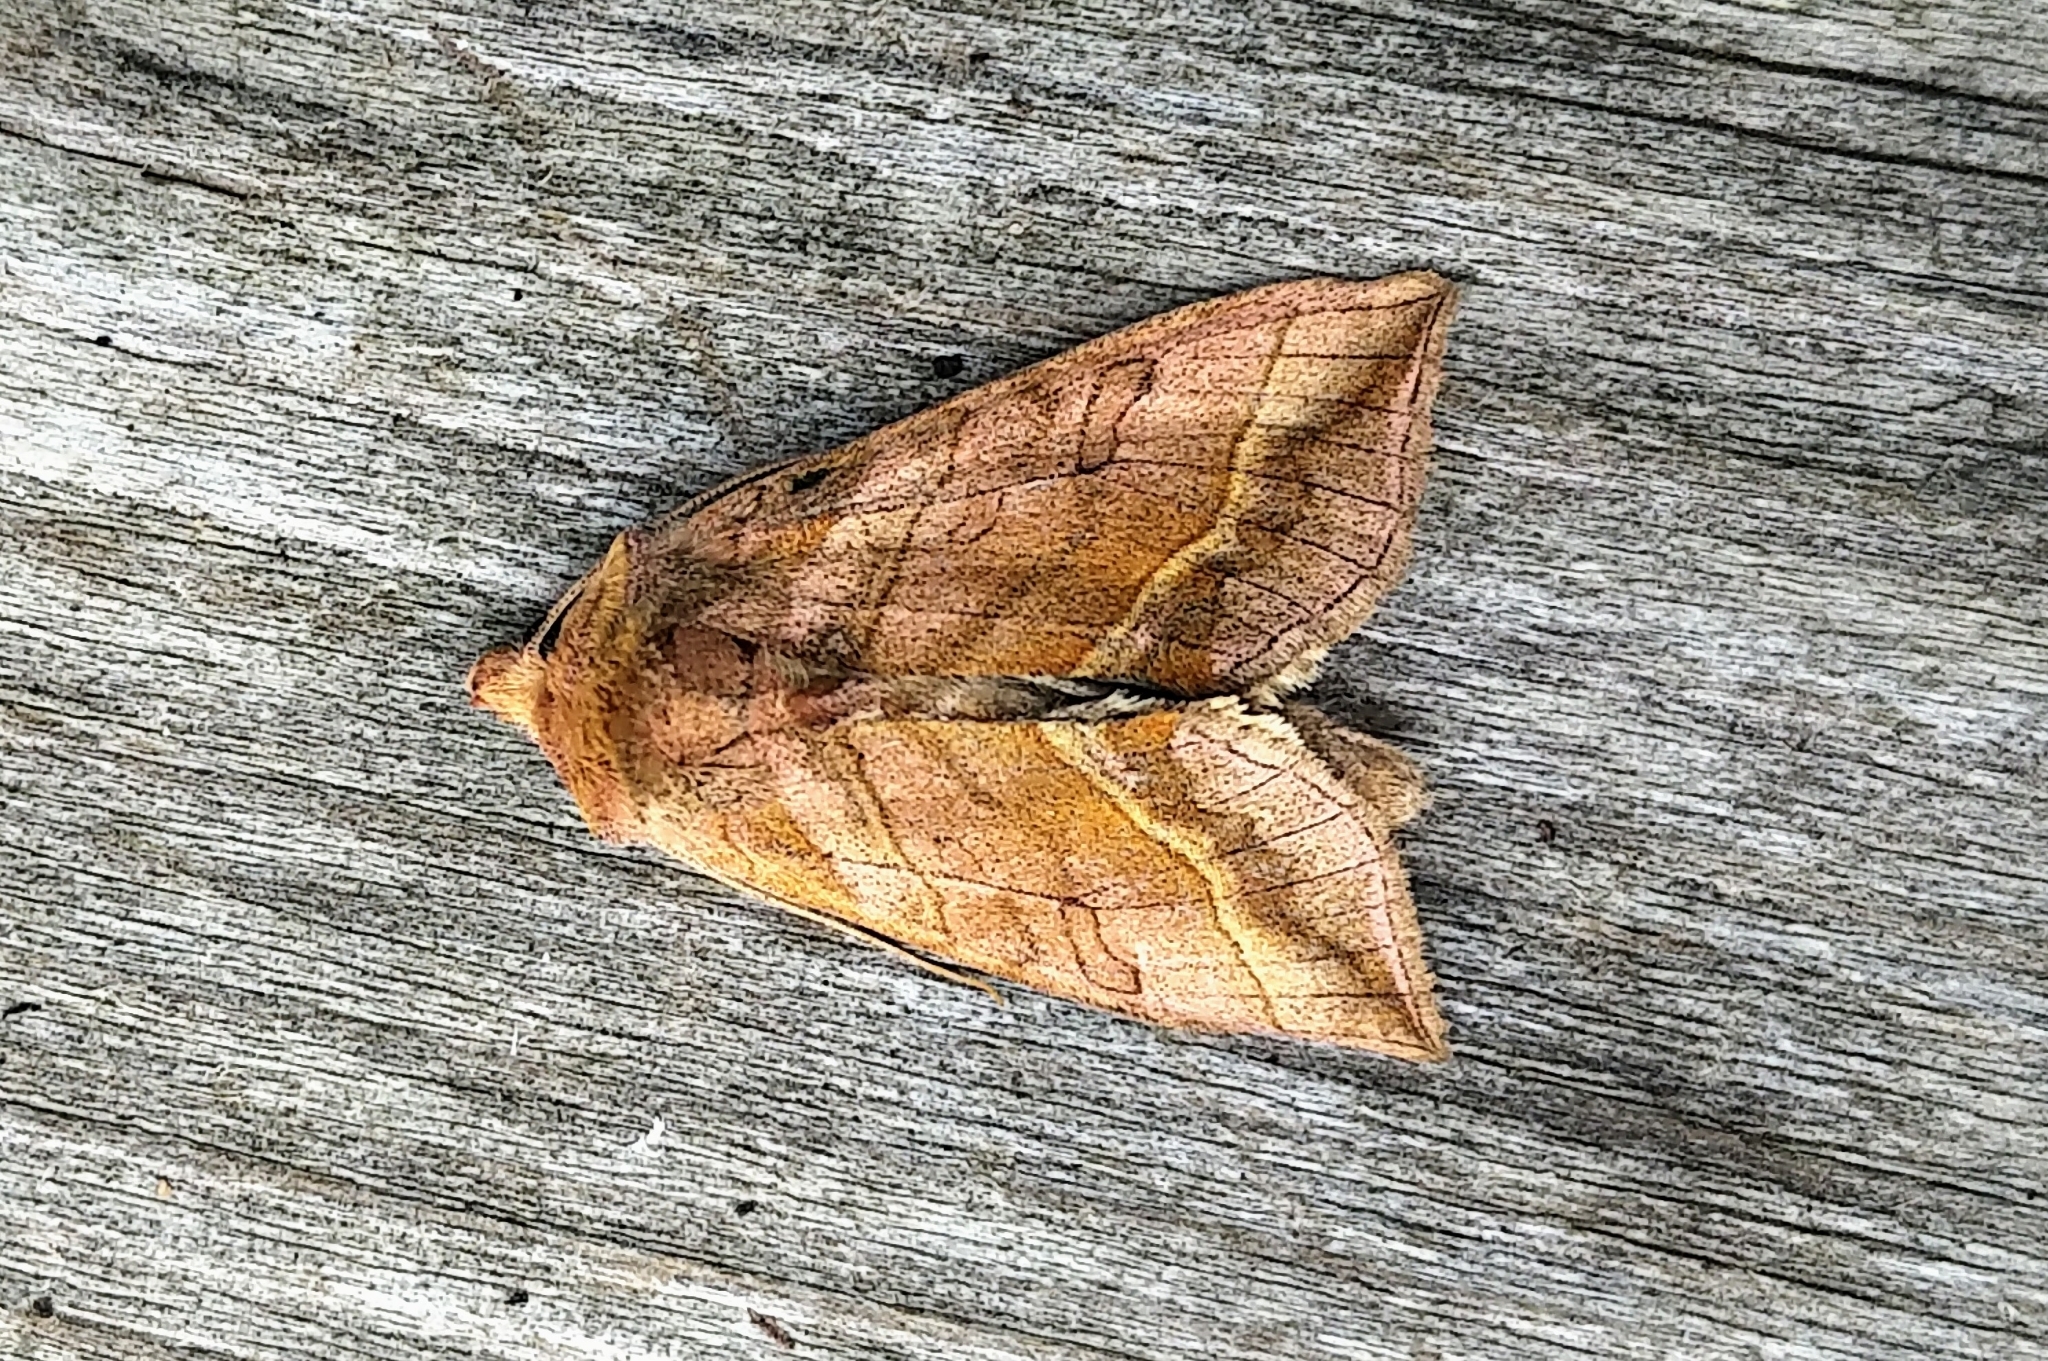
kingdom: Animalia
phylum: Arthropoda
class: Insecta
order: Lepidoptera
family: Noctuidae
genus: Diachrysia
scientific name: Diachrysia aereoides
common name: Dark-spotted looper moth
